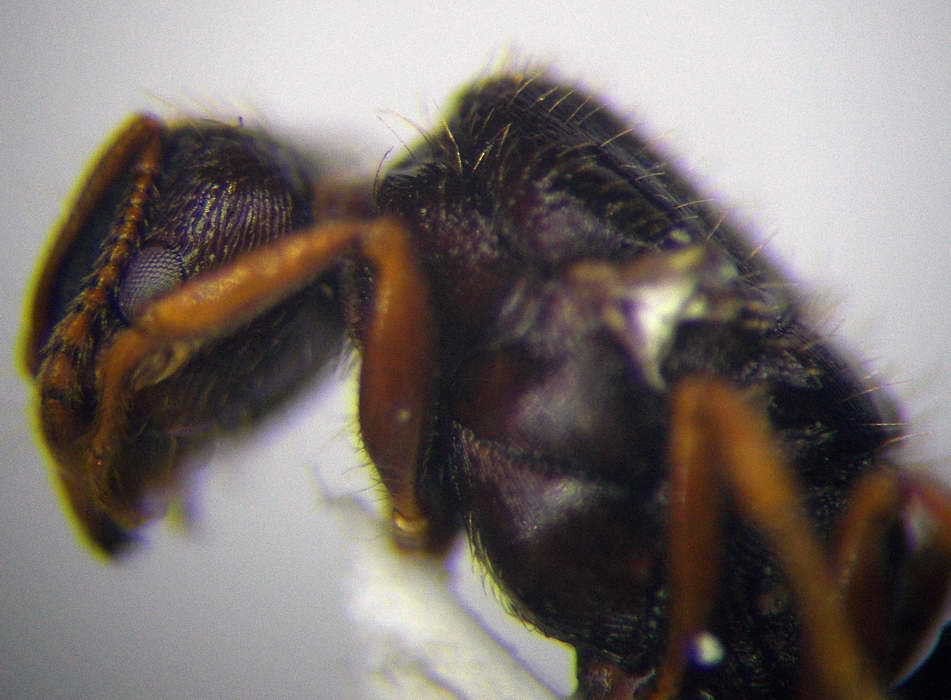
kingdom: Animalia
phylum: Arthropoda
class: Insecta
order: Hymenoptera
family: Formicidae
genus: Tetramorium
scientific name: Tetramorium caespitum
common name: Pavement ant
